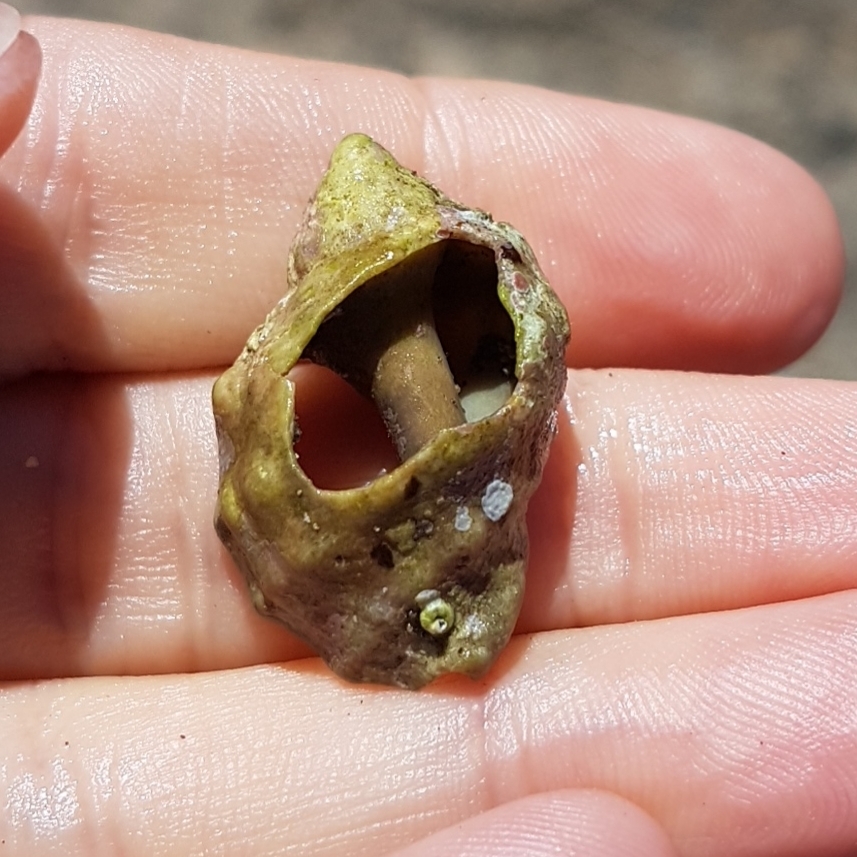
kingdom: Animalia
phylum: Mollusca
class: Gastropoda
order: Neogastropoda
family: Muricidae
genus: Stramonita
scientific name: Stramonita haemastoma
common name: Florida dog winkle
